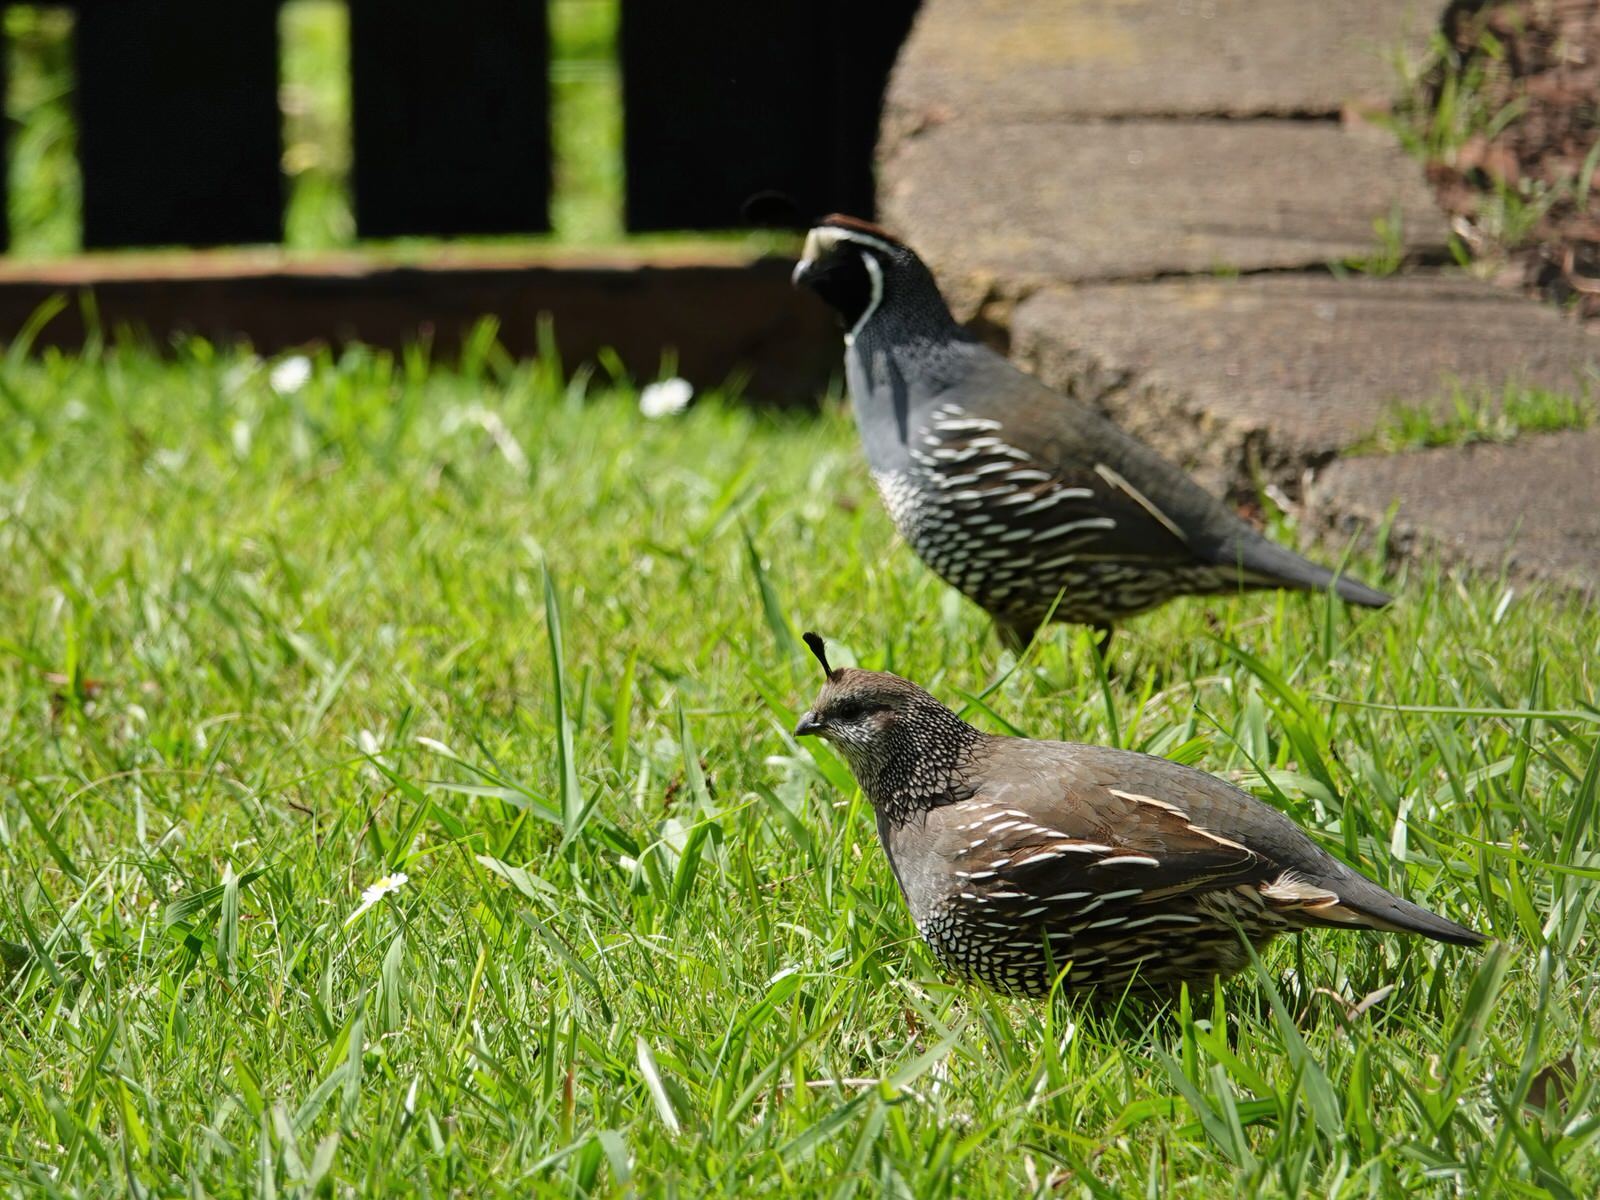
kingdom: Animalia
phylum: Chordata
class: Aves
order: Galliformes
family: Odontophoridae
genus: Callipepla
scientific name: Callipepla californica
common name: California quail
